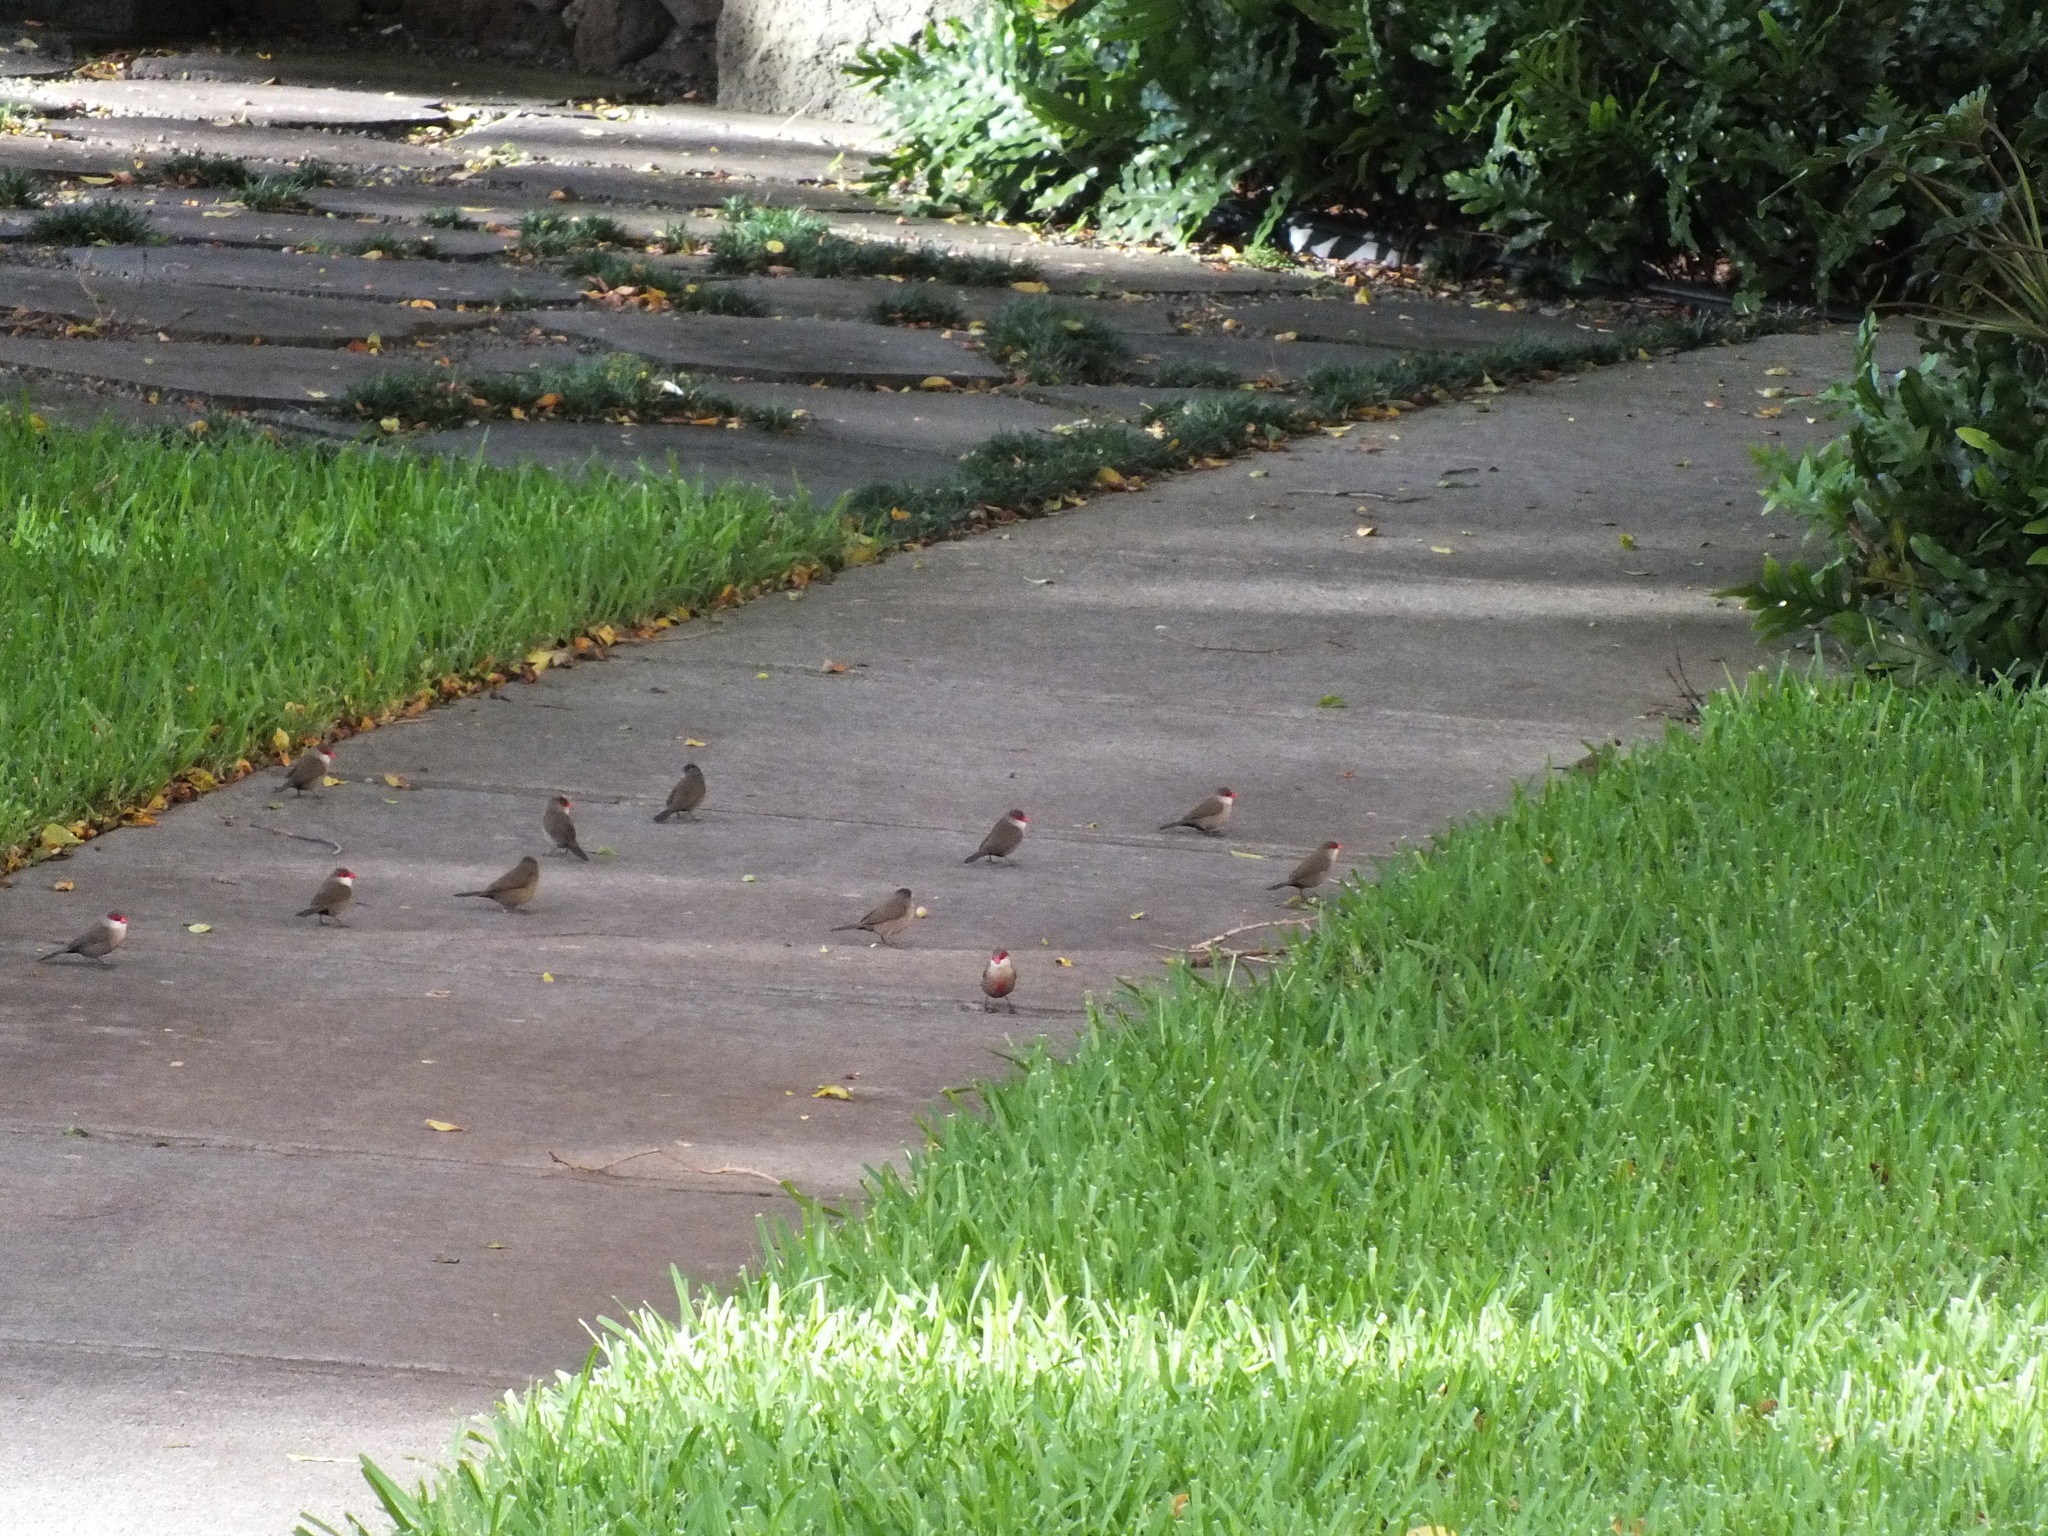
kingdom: Animalia
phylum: Chordata
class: Aves
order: Passeriformes
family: Estrildidae
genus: Estrilda
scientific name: Estrilda astrild
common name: Common waxbill
